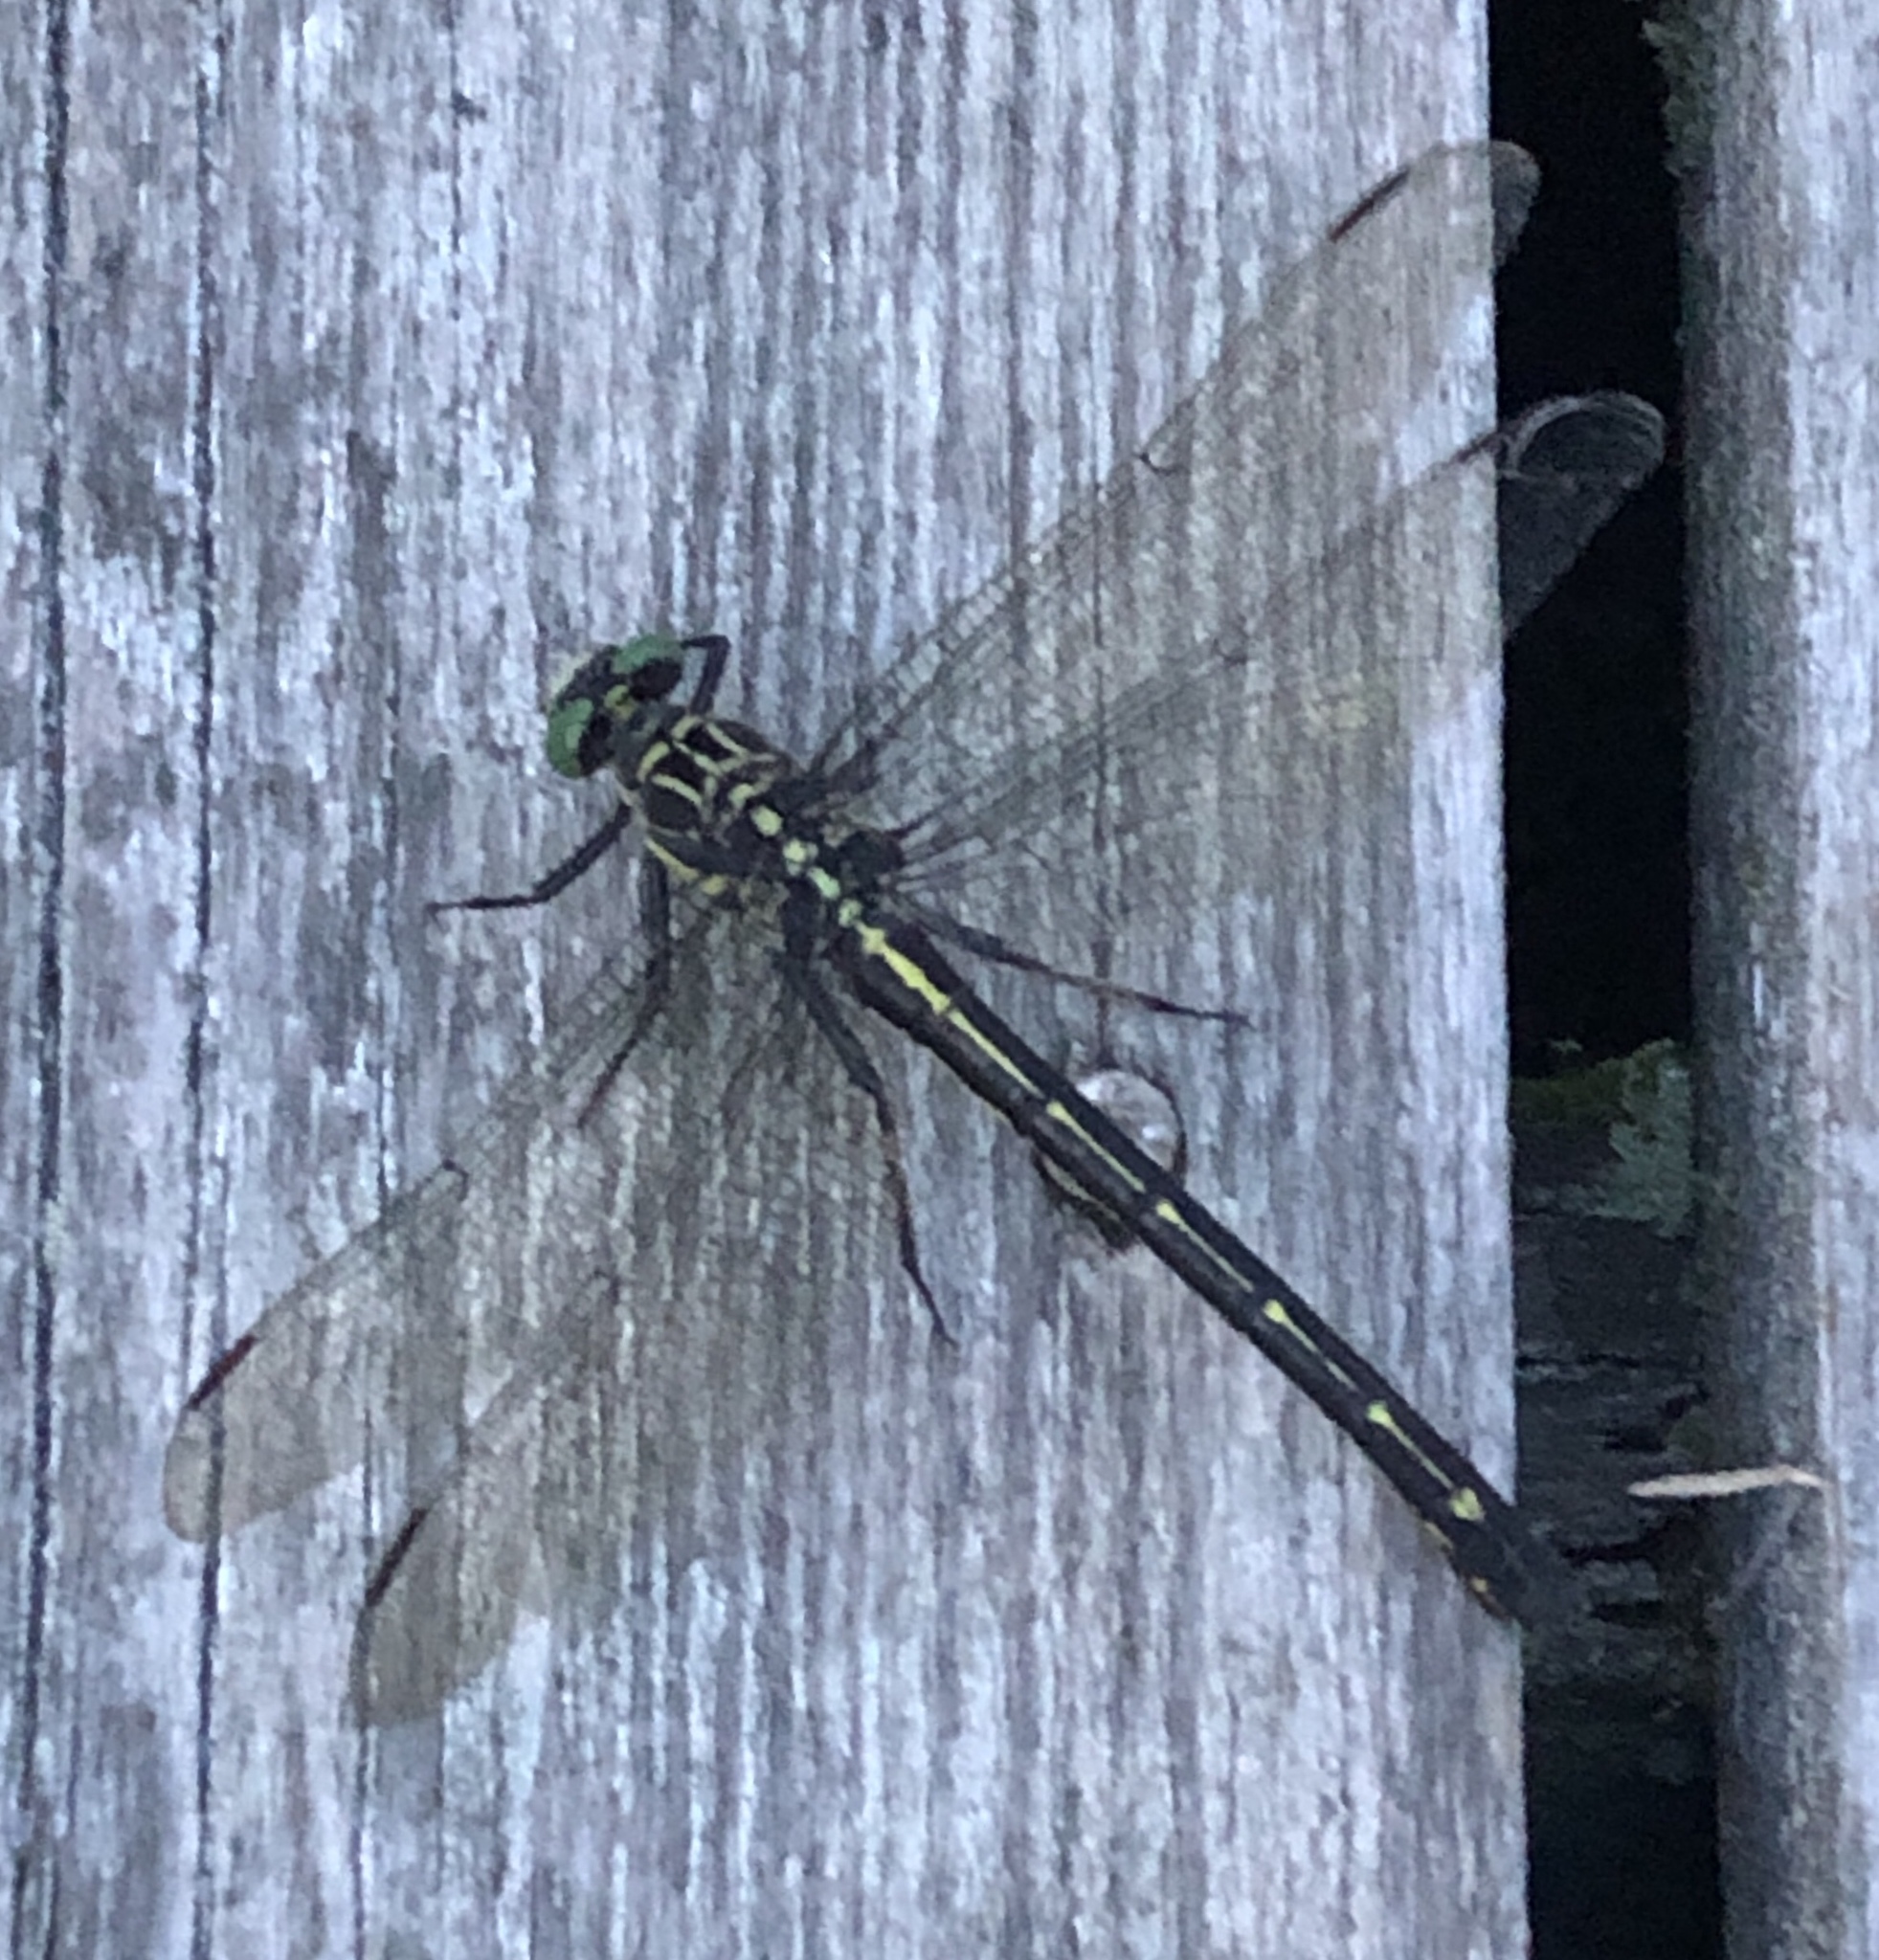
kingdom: Animalia
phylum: Arthropoda
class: Insecta
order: Odonata
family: Gomphidae
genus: Hagenius
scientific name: Hagenius brevistylus
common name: Dragonhunter
